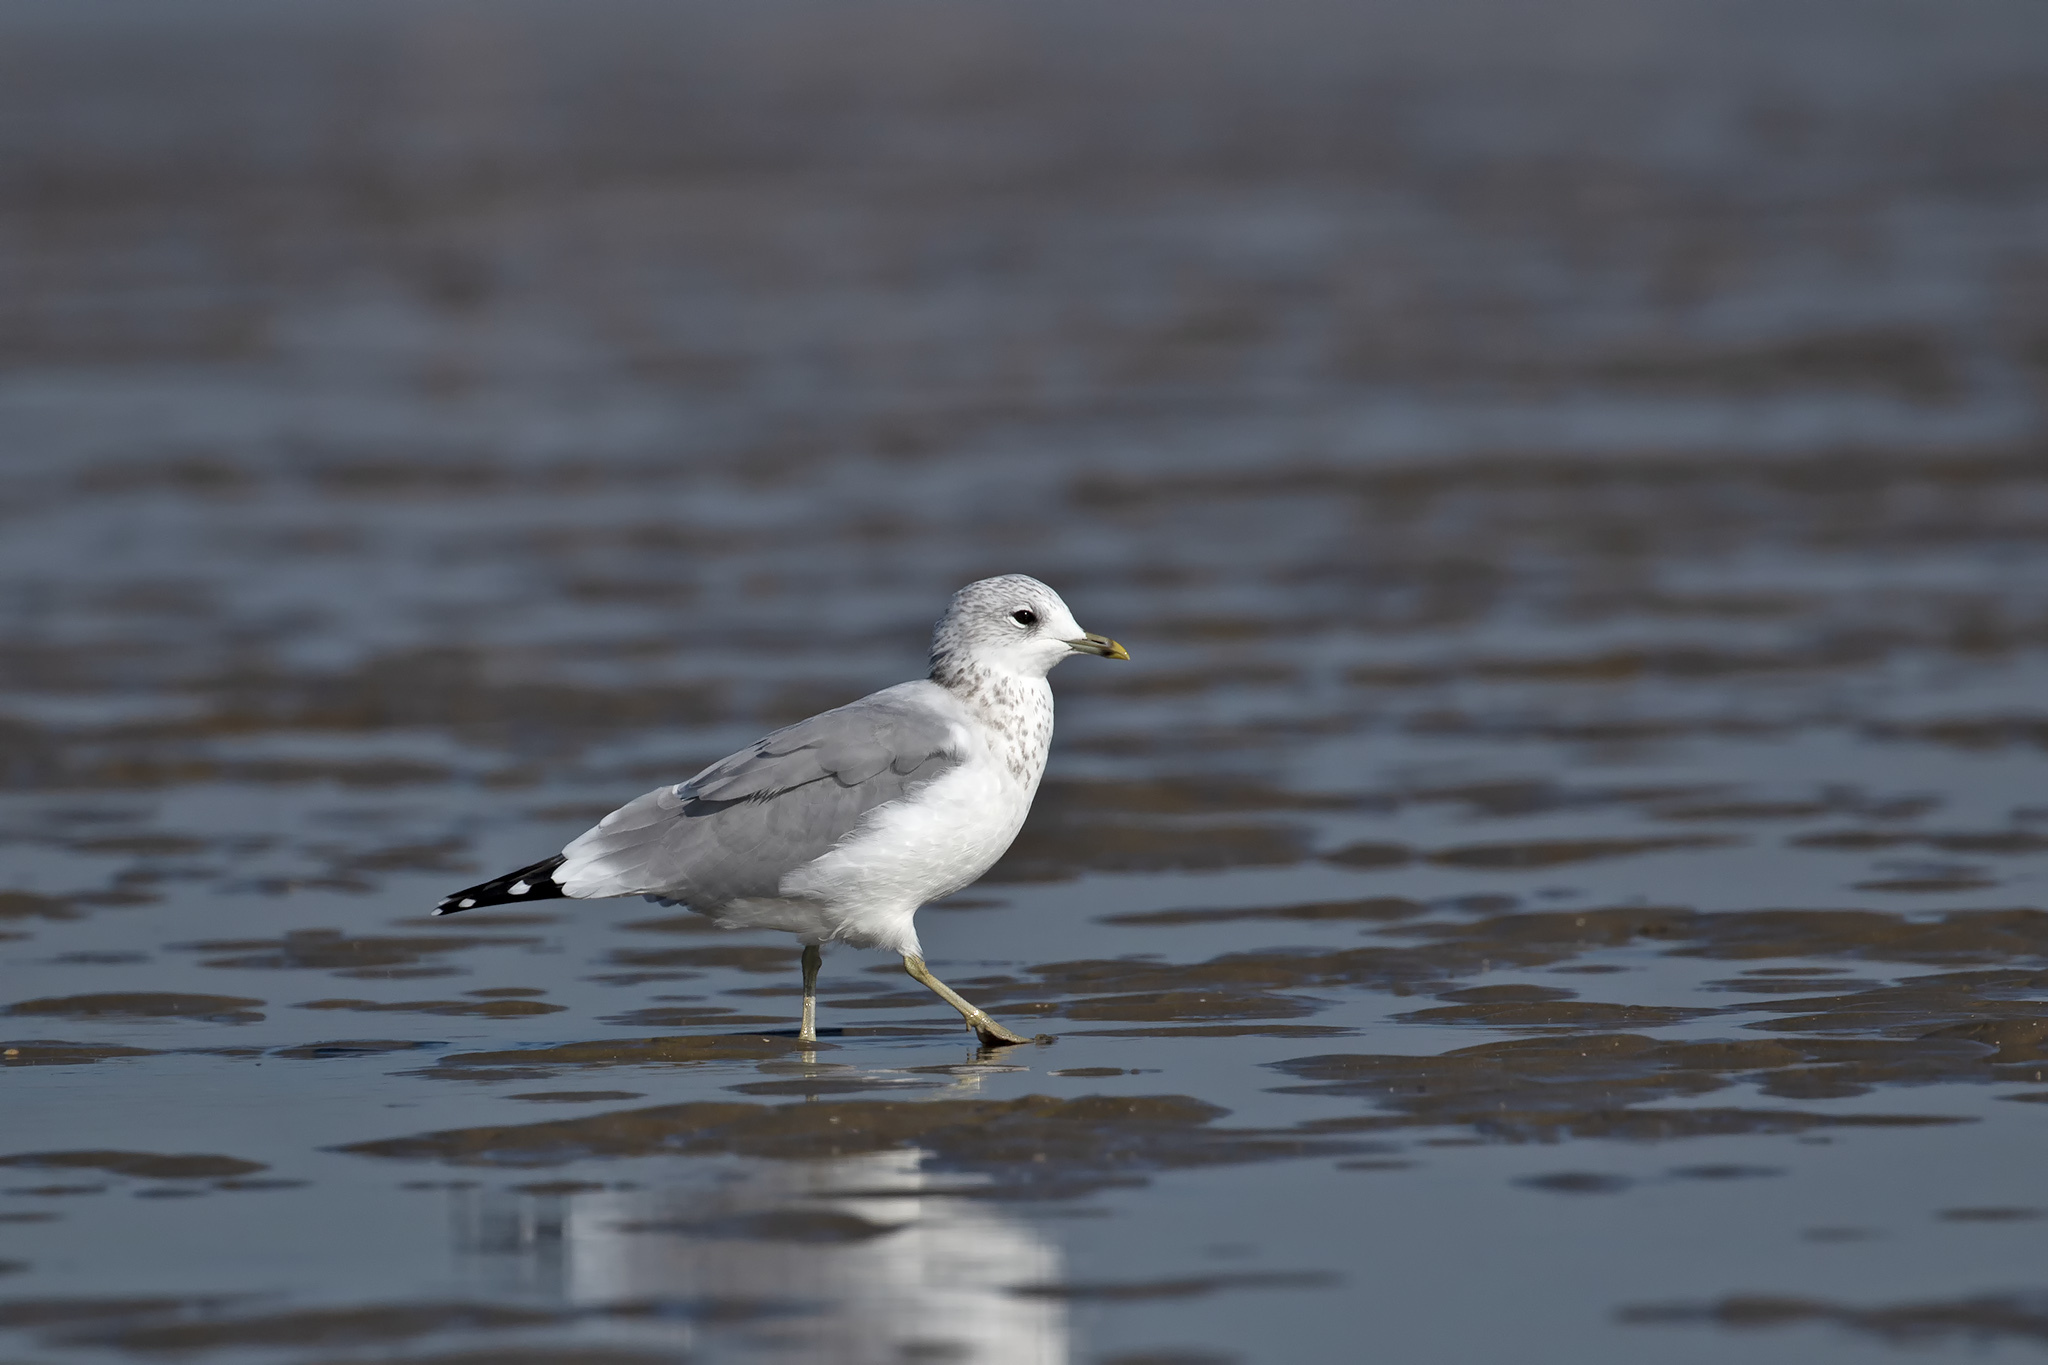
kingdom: Animalia
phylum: Chordata
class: Aves
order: Charadriiformes
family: Laridae
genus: Larus
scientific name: Larus canus
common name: Mew gull
